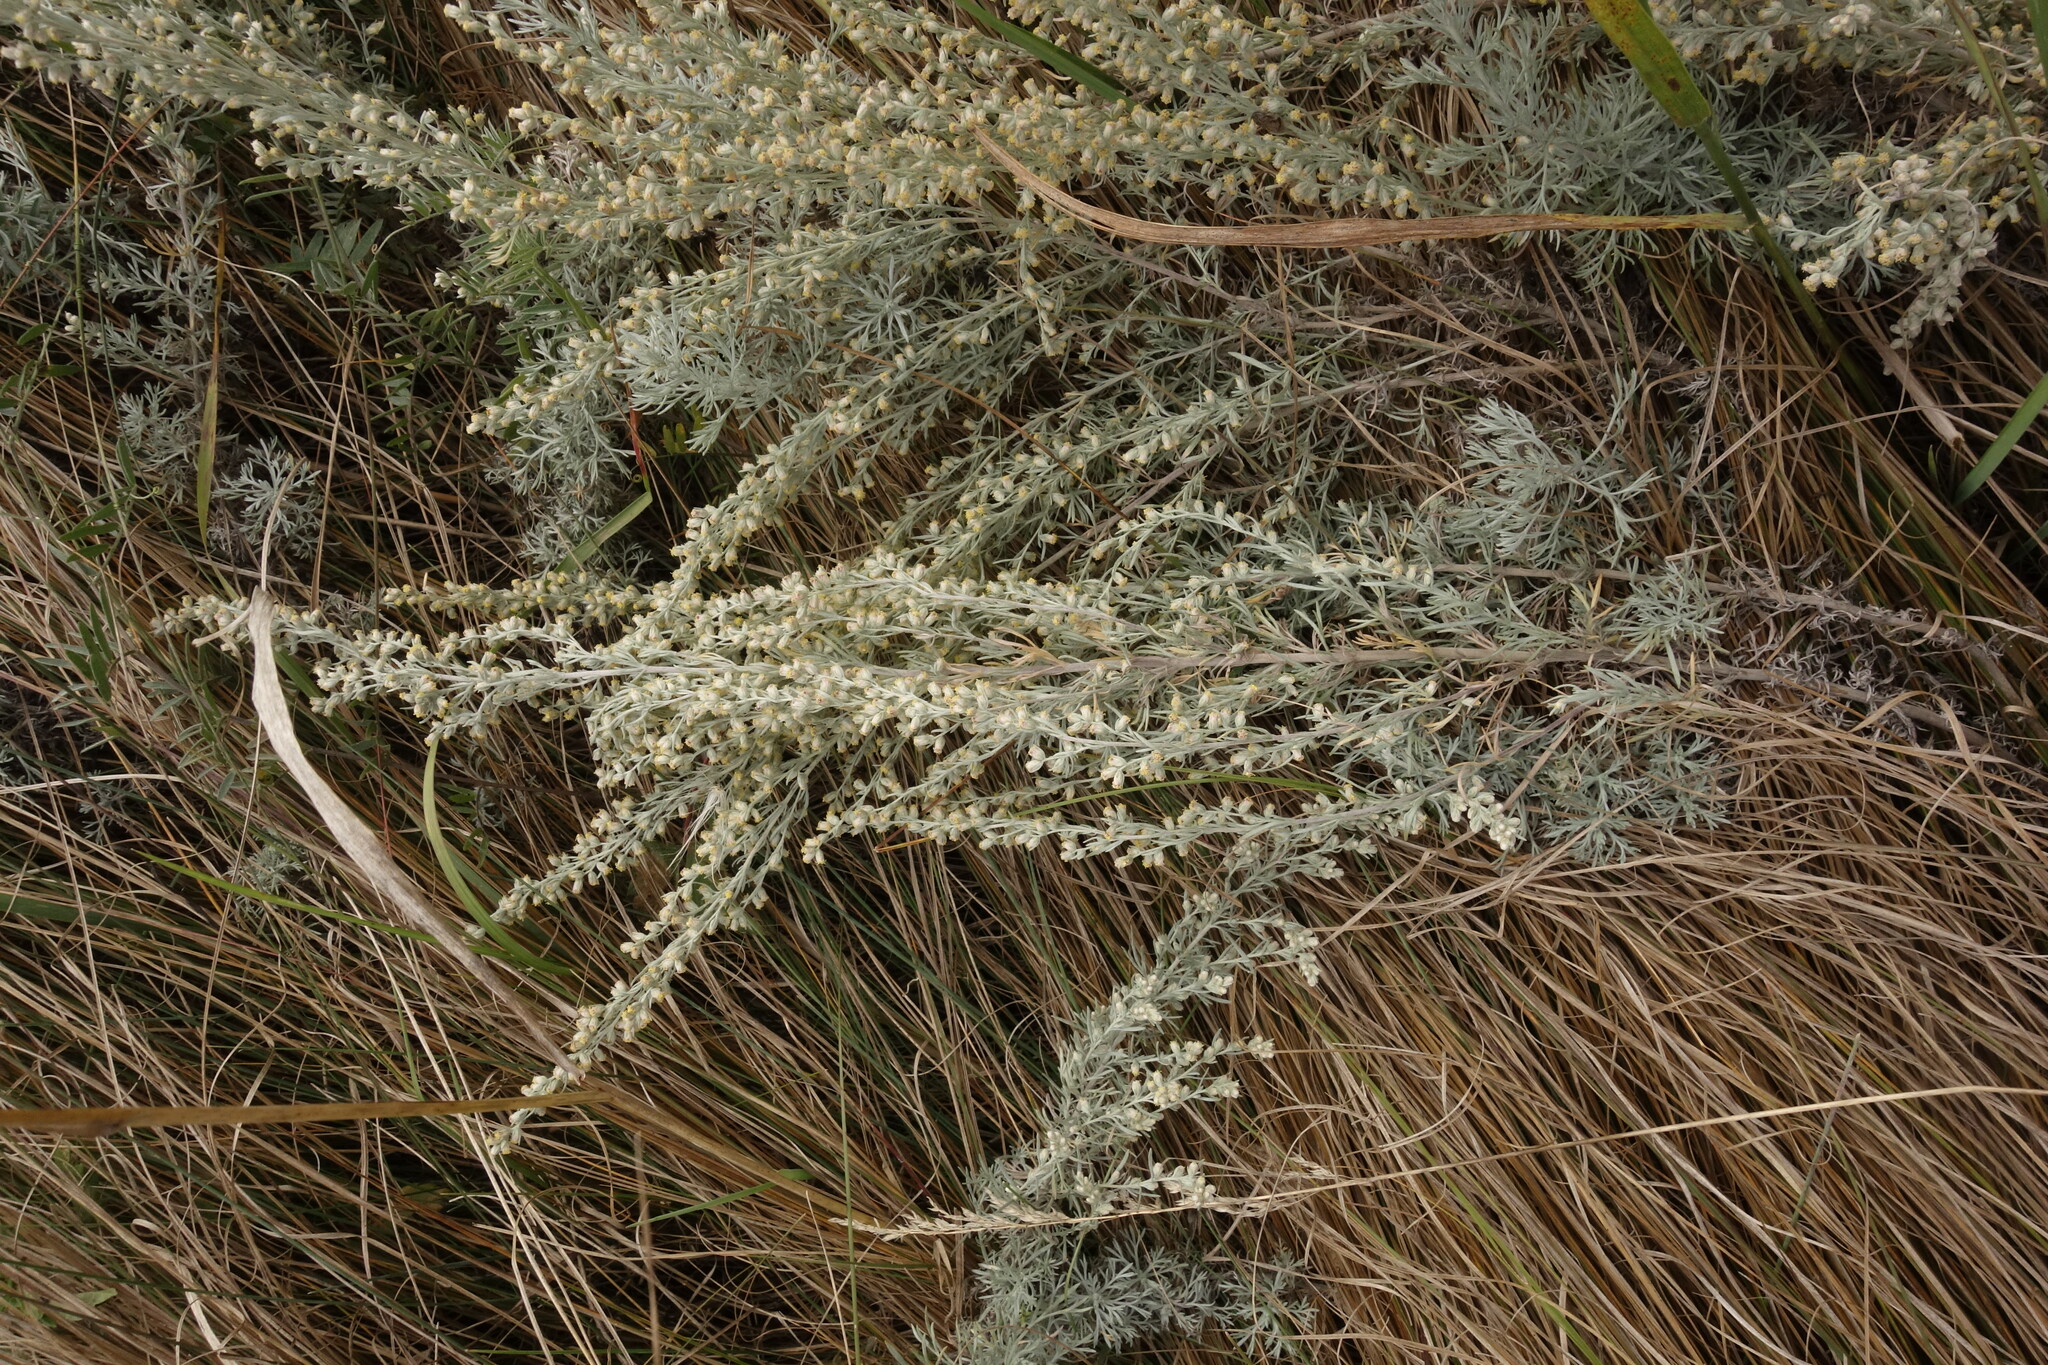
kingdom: Plantae
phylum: Tracheophyta
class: Magnoliopsida
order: Asterales
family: Asteraceae
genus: Artemisia
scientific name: Artemisia austriaca
